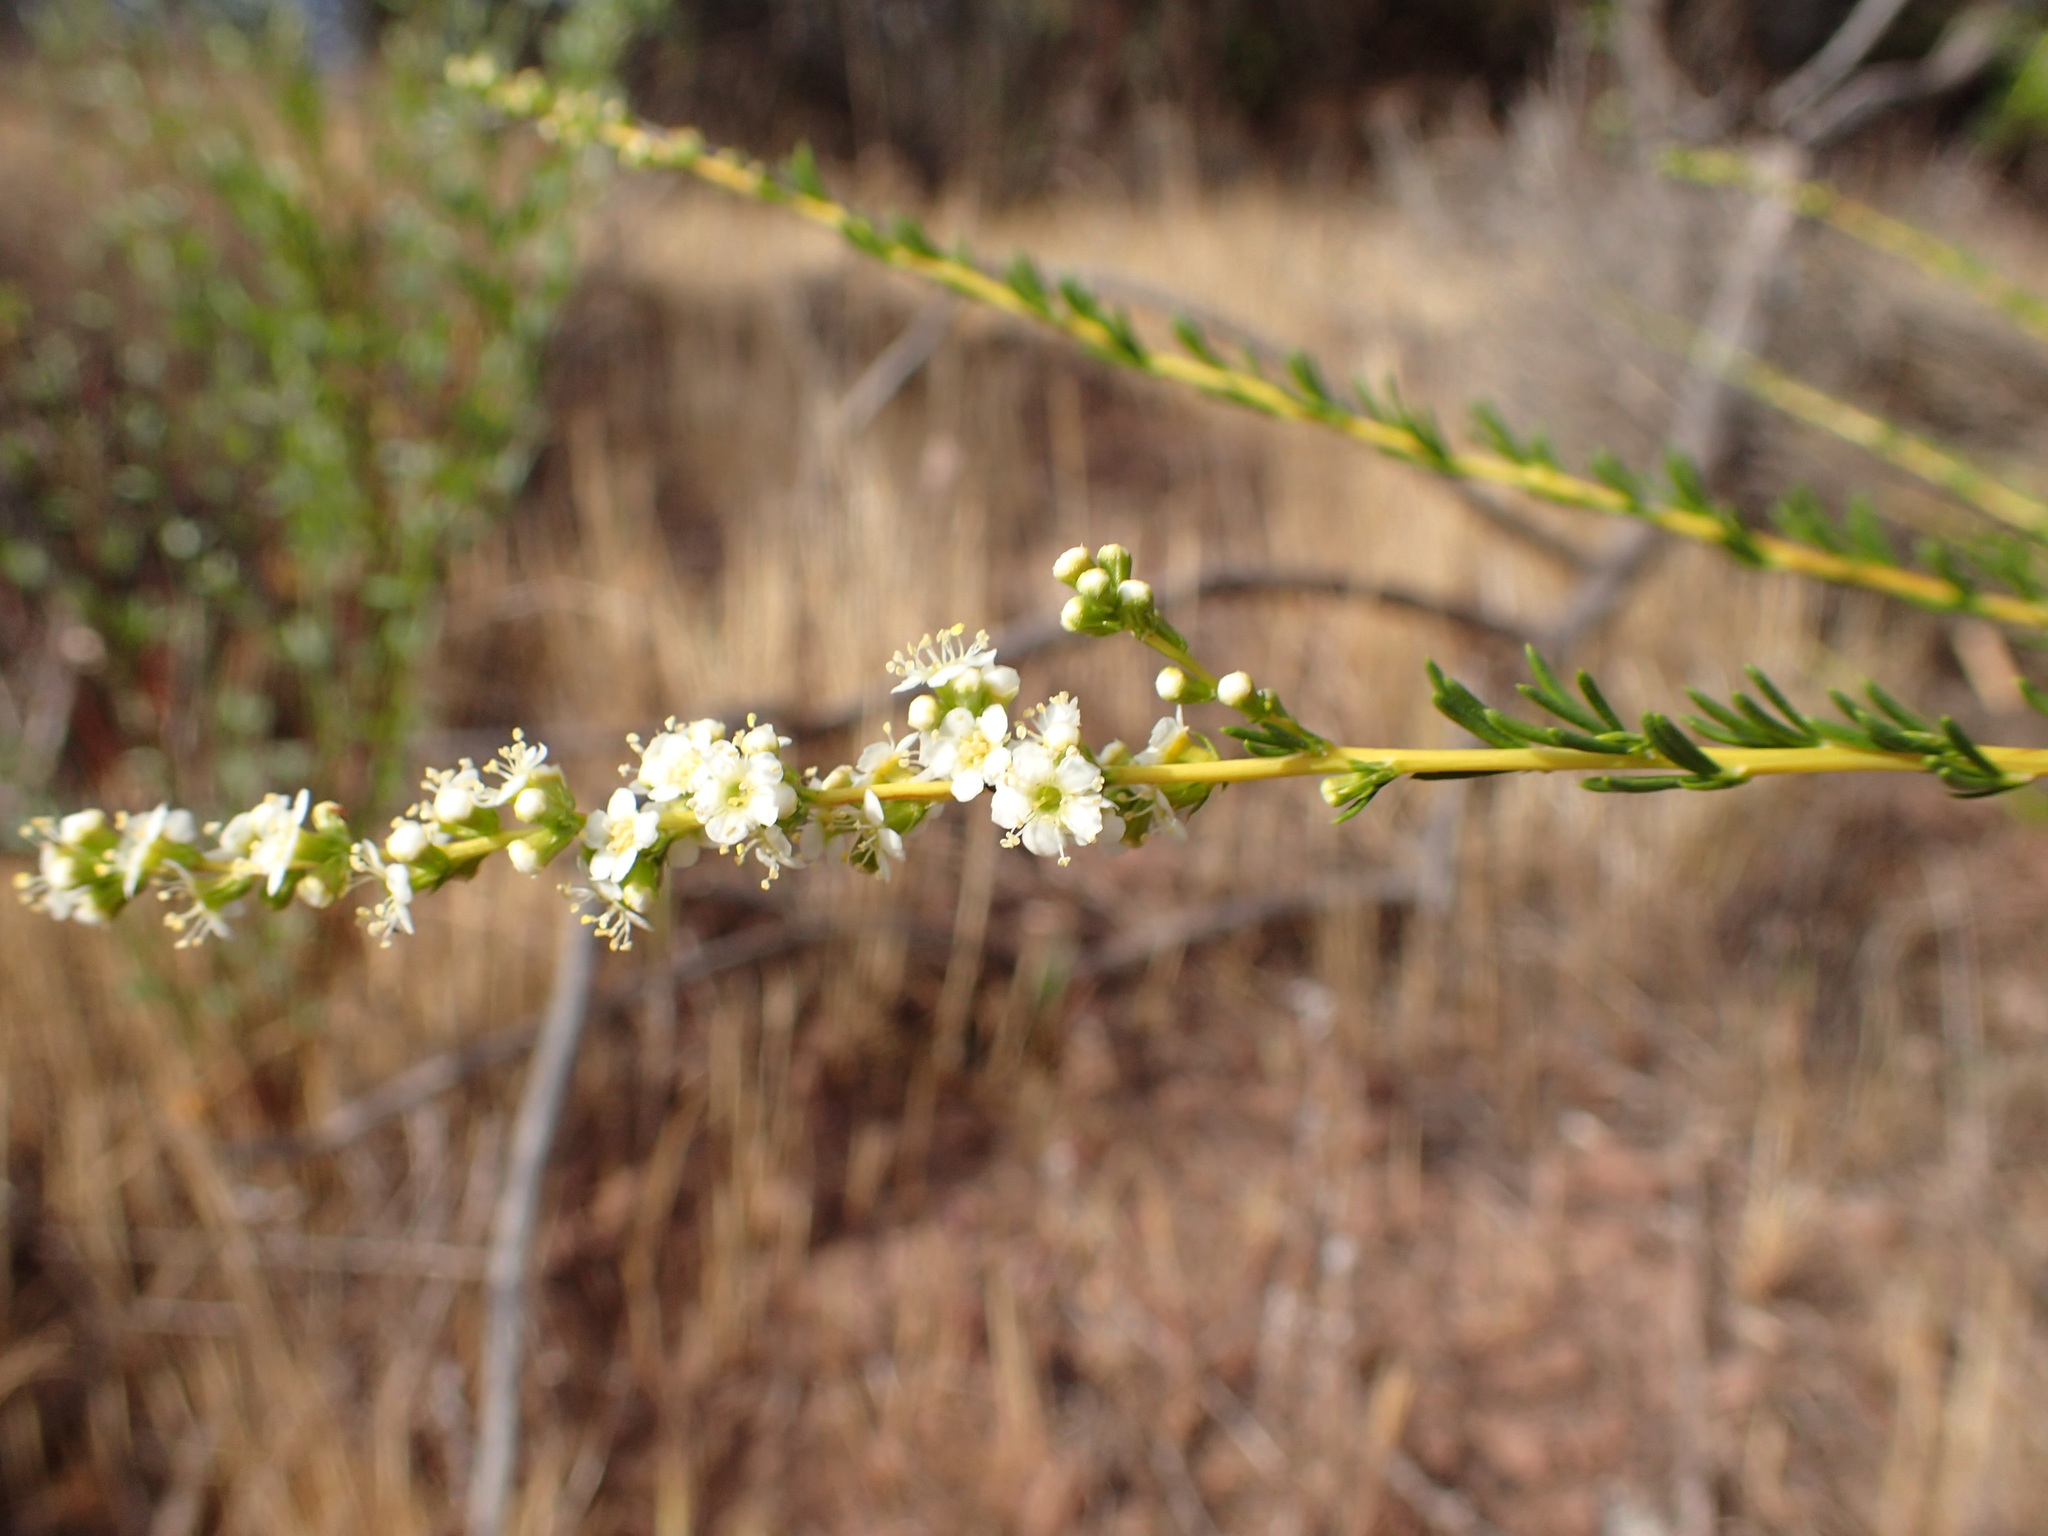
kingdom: Plantae
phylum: Tracheophyta
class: Magnoliopsida
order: Rosales
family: Rosaceae
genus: Adenostoma
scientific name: Adenostoma fasciculatum
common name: Chamise
